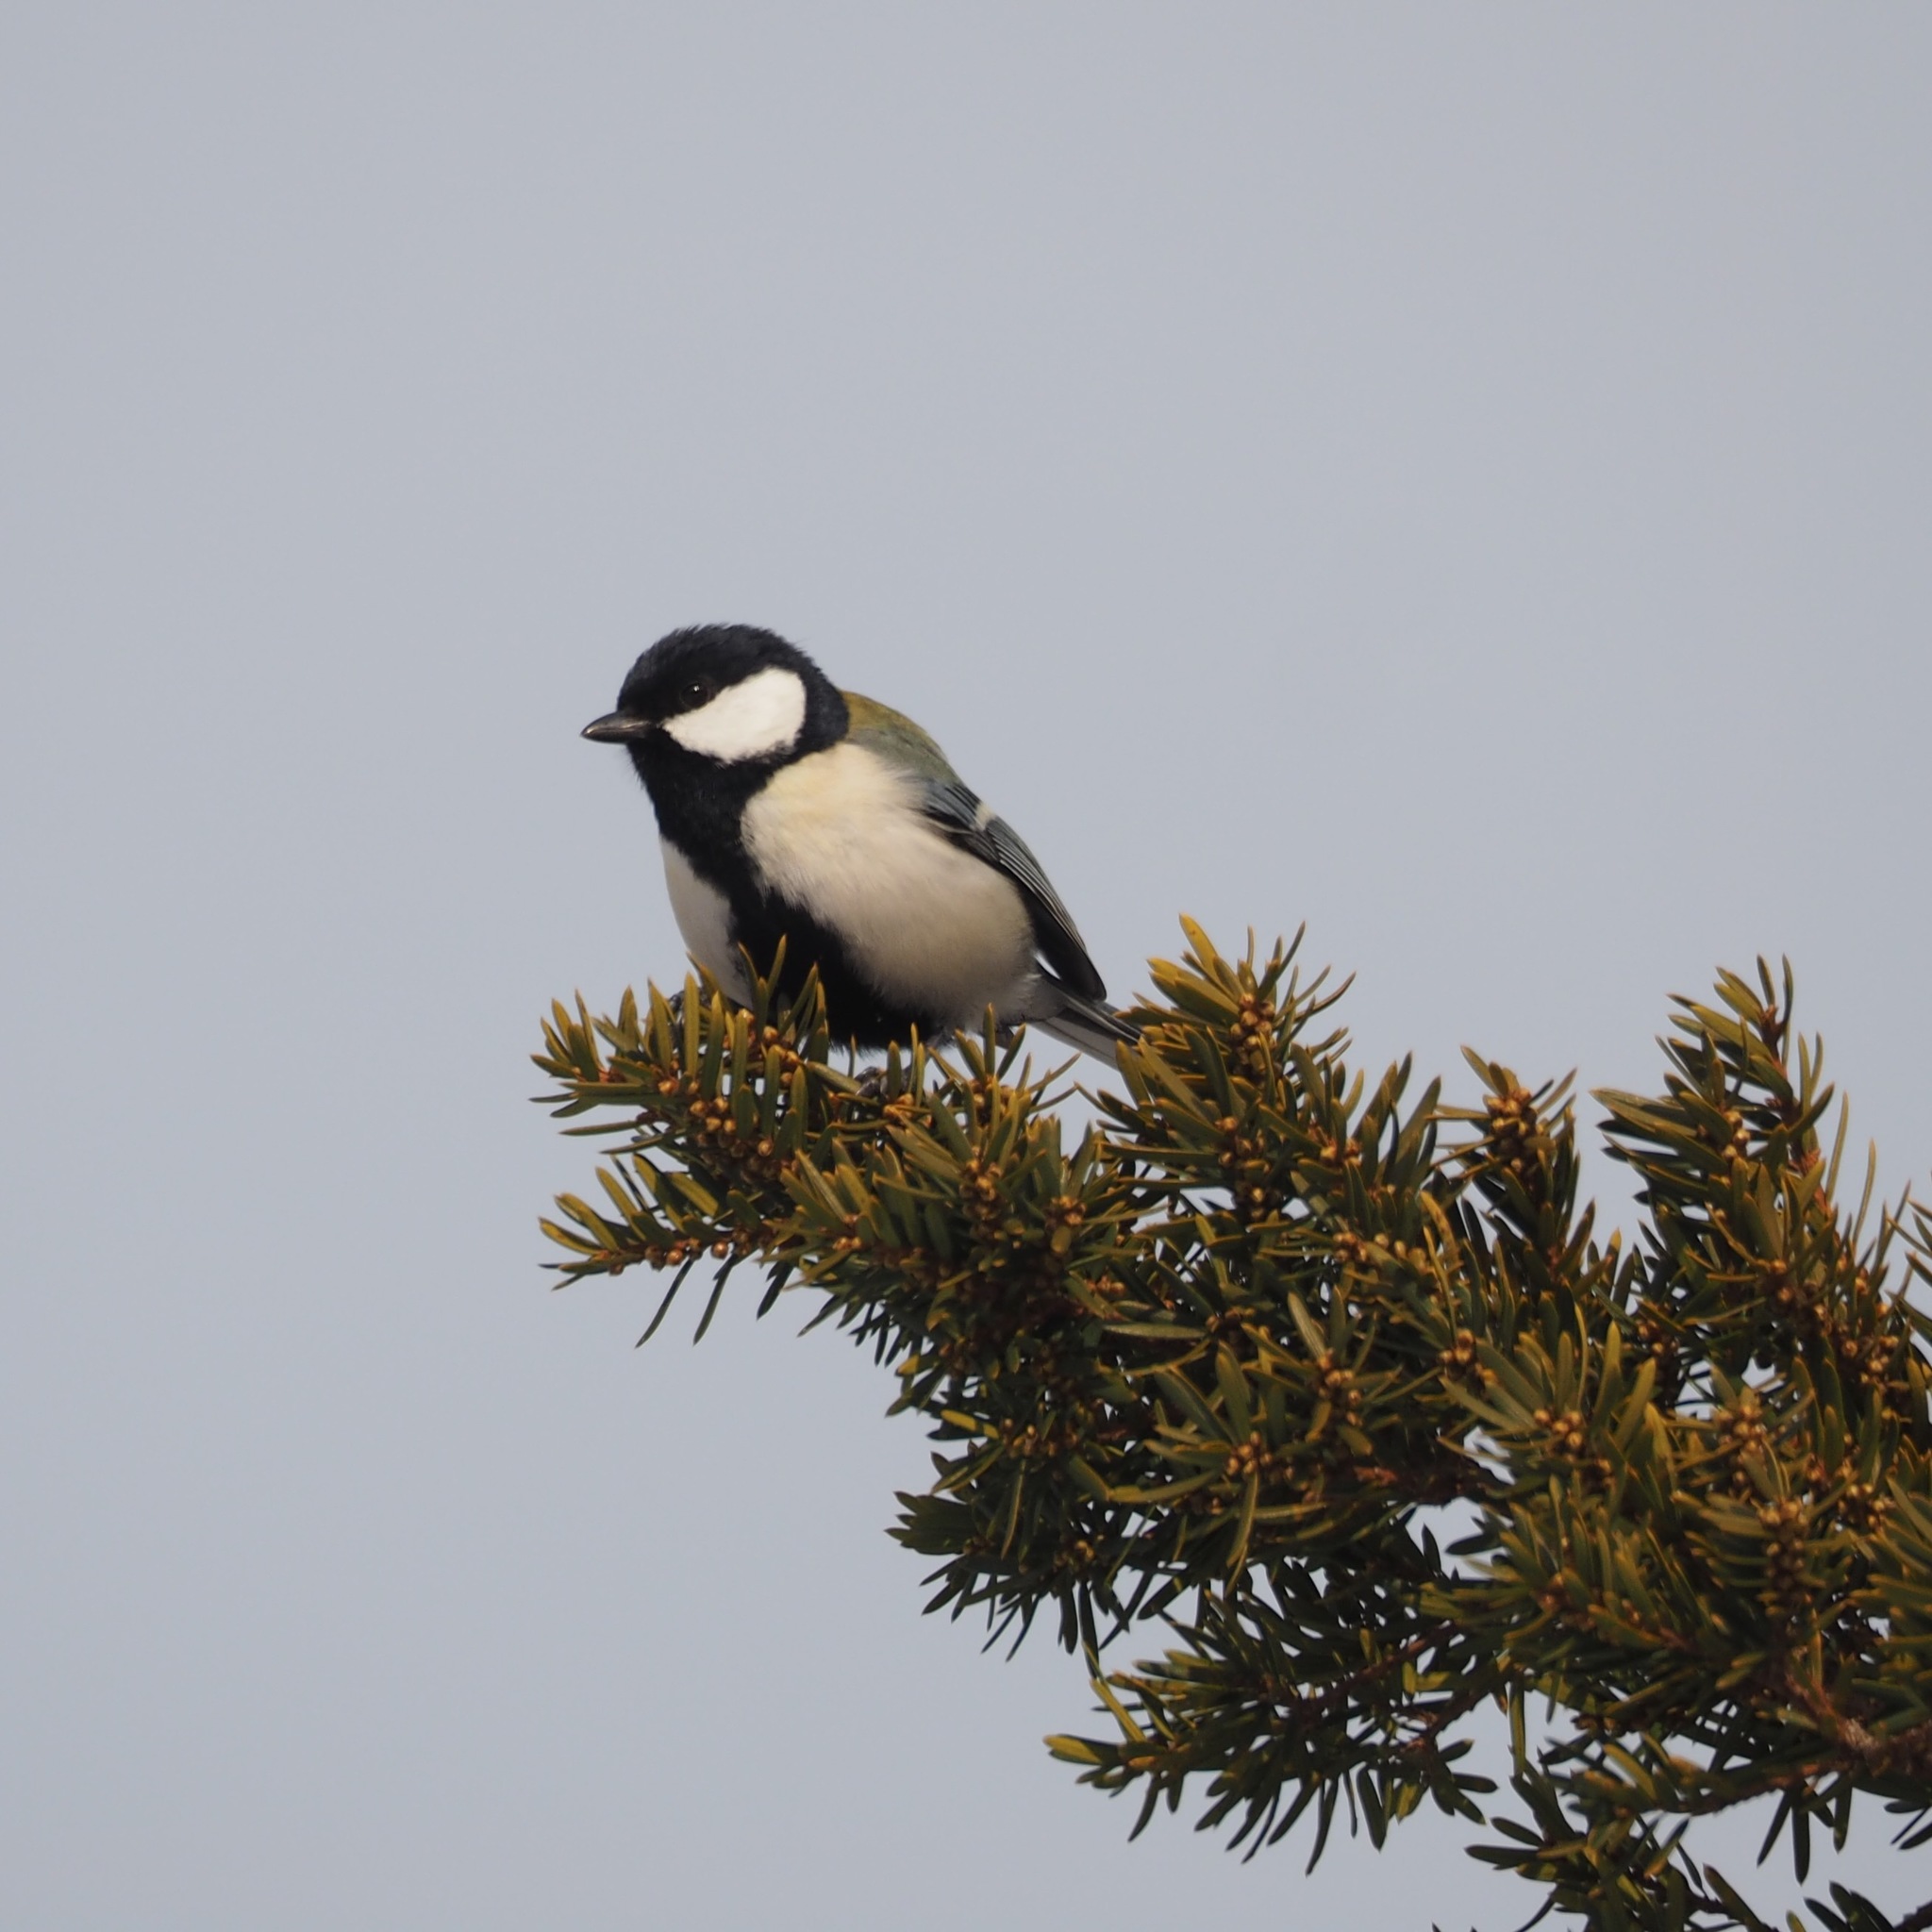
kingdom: Animalia
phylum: Chordata
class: Aves
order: Passeriformes
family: Paridae
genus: Parus
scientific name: Parus minor
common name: Japanese tit
